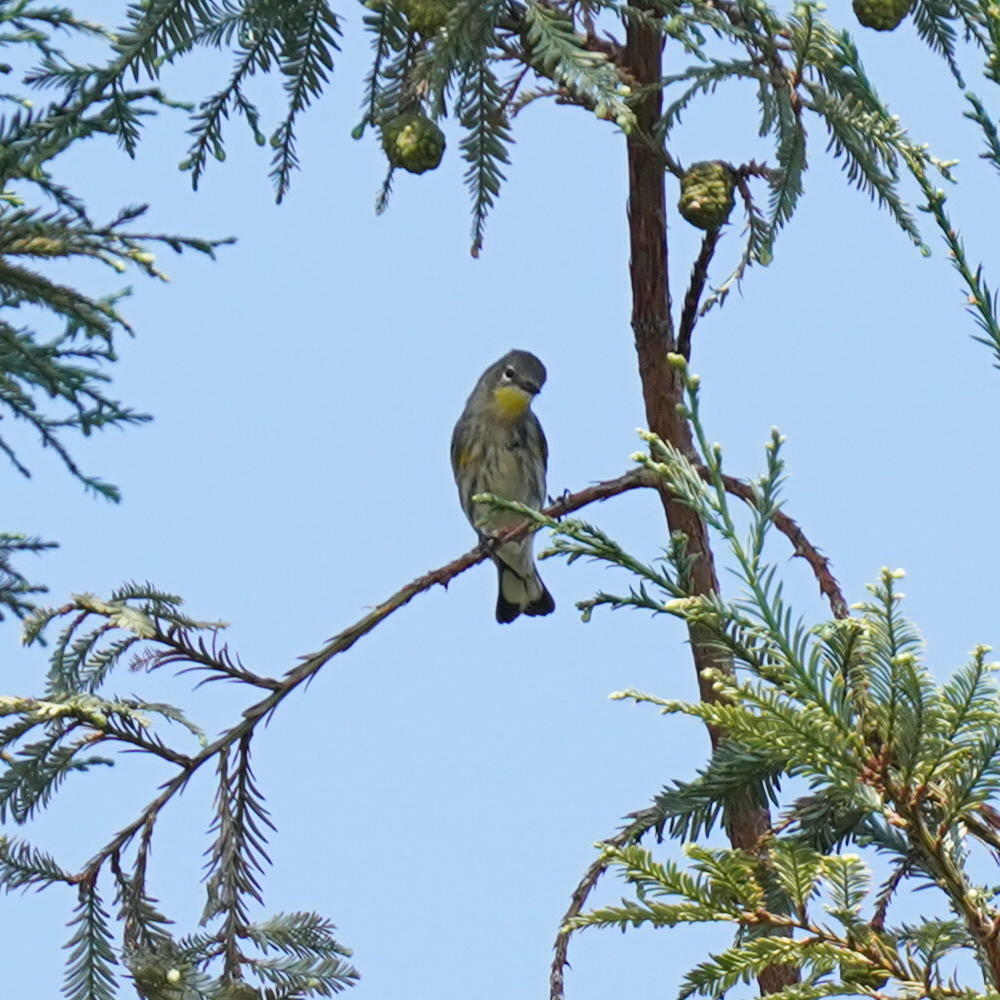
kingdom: Animalia
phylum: Chordata
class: Aves
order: Passeriformes
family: Parulidae
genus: Setophaga
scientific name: Setophaga coronata
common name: Myrtle warbler
